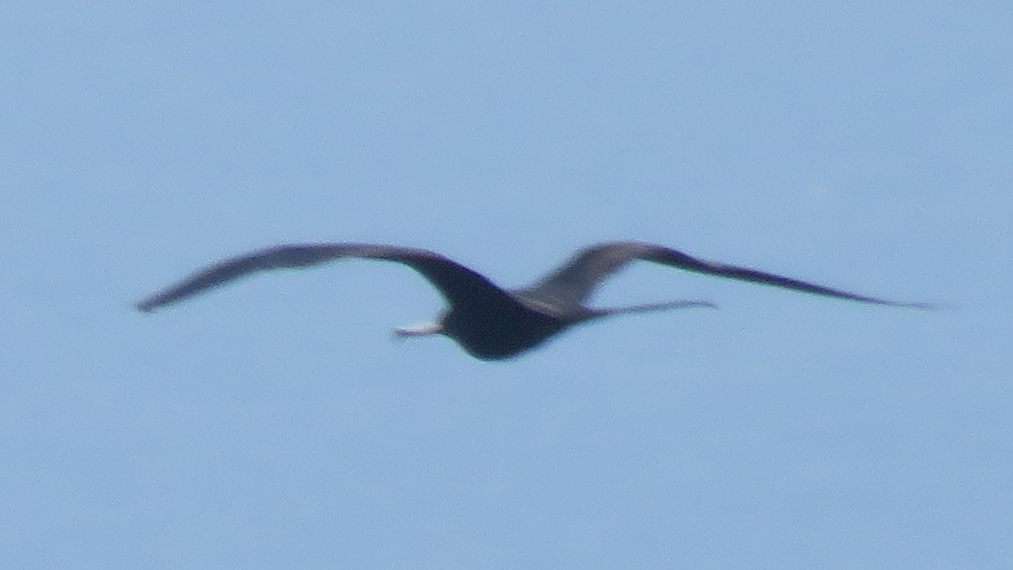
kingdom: Animalia
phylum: Chordata
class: Aves
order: Suliformes
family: Fregatidae
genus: Fregata
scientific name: Fregata magnificens
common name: Magnificent frigatebird
